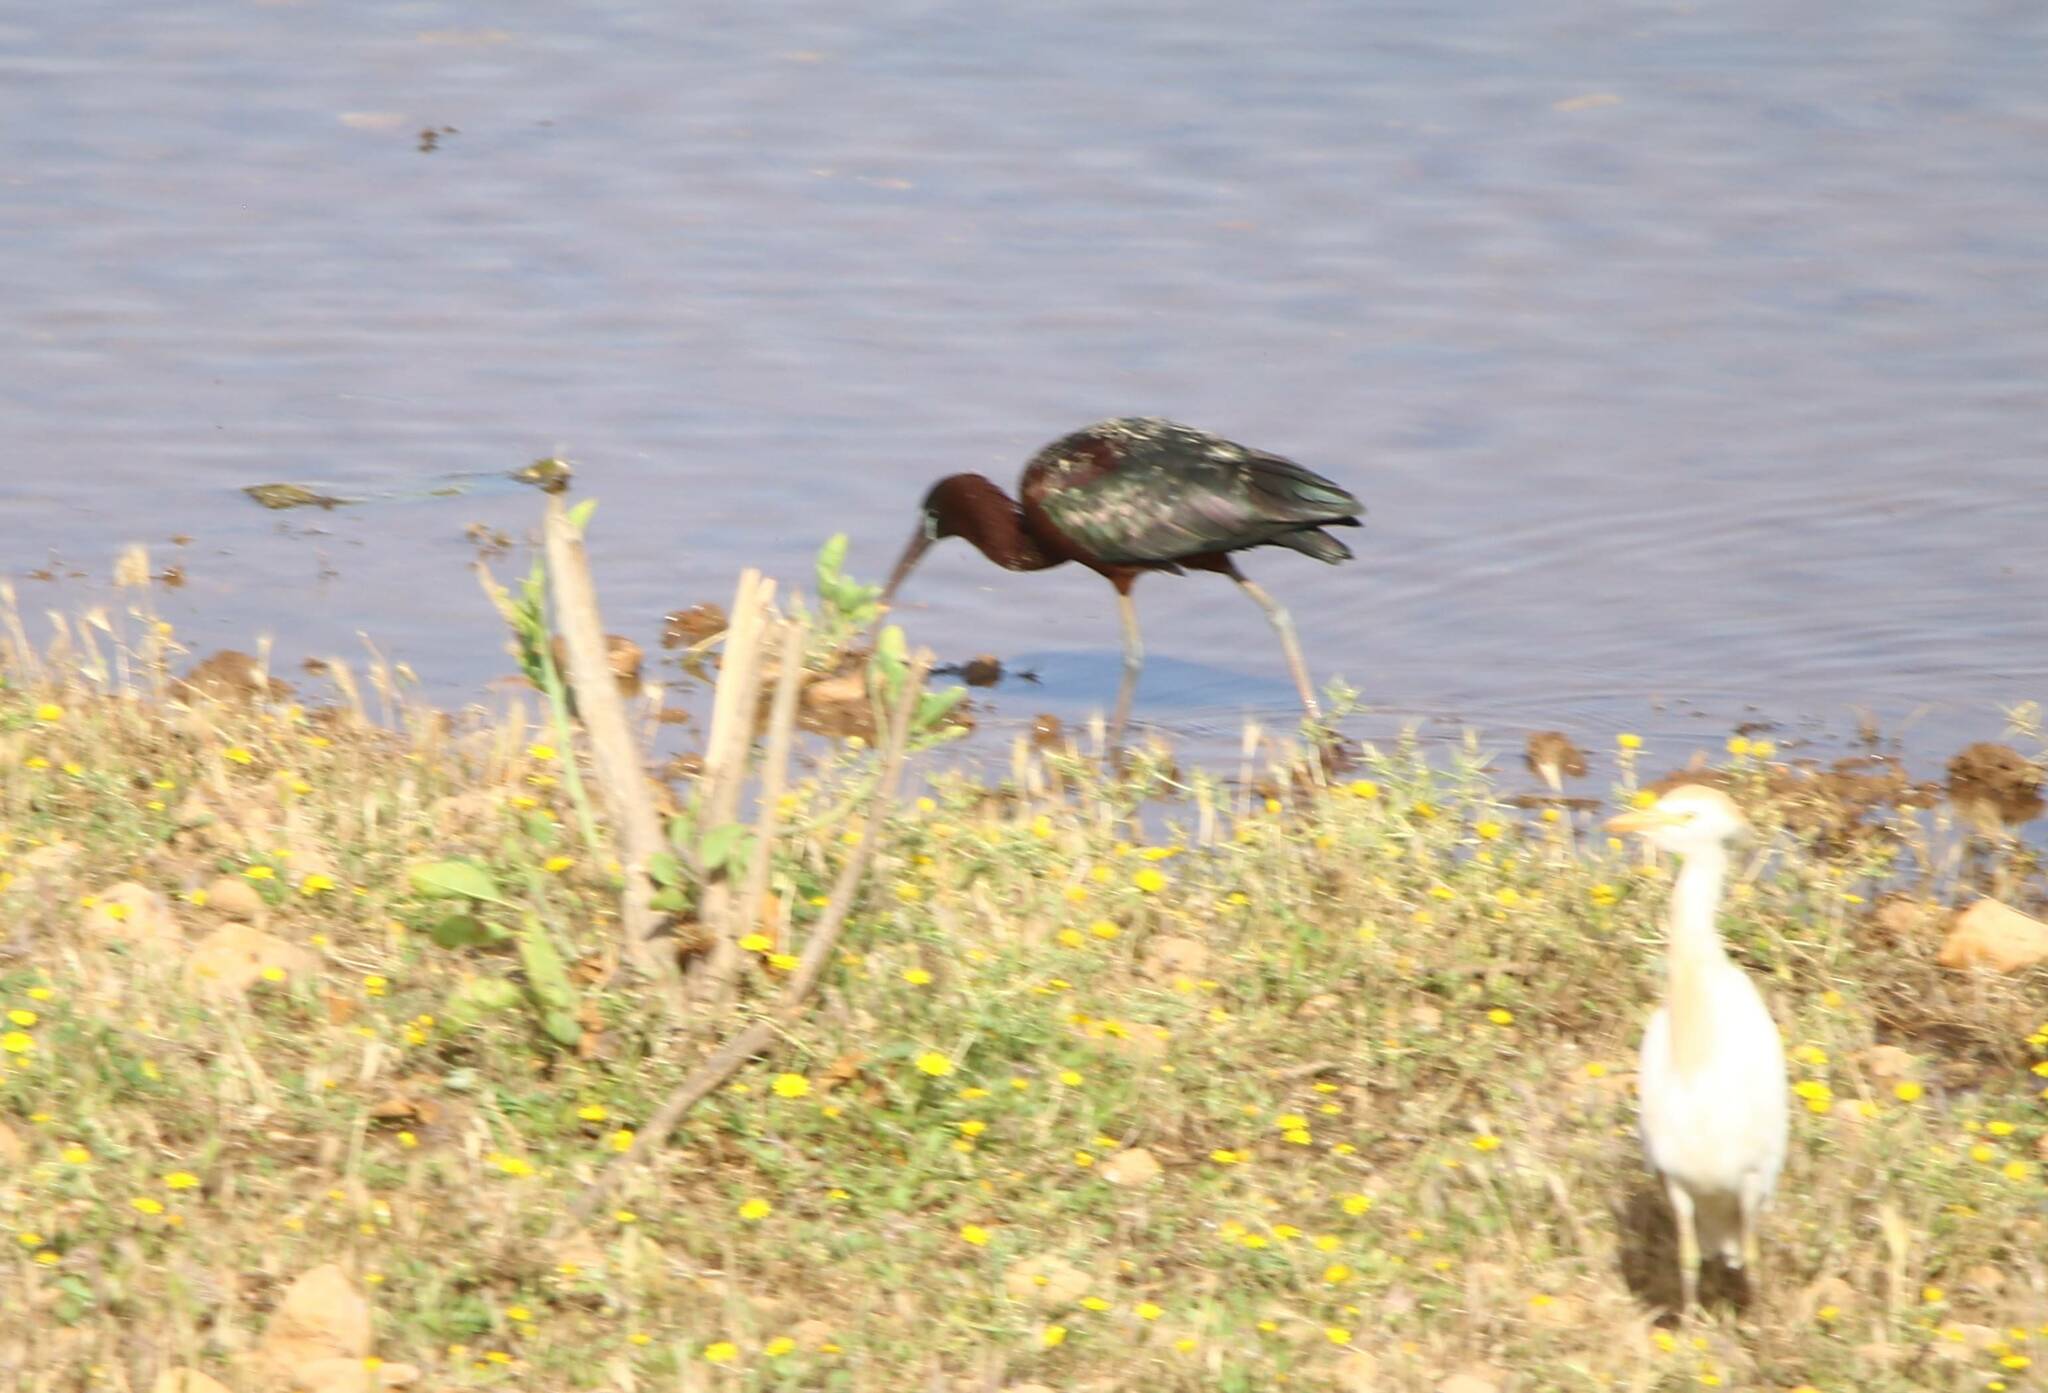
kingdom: Animalia
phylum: Chordata
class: Aves
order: Pelecaniformes
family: Threskiornithidae
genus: Plegadis
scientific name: Plegadis falcinellus
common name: Glossy ibis
